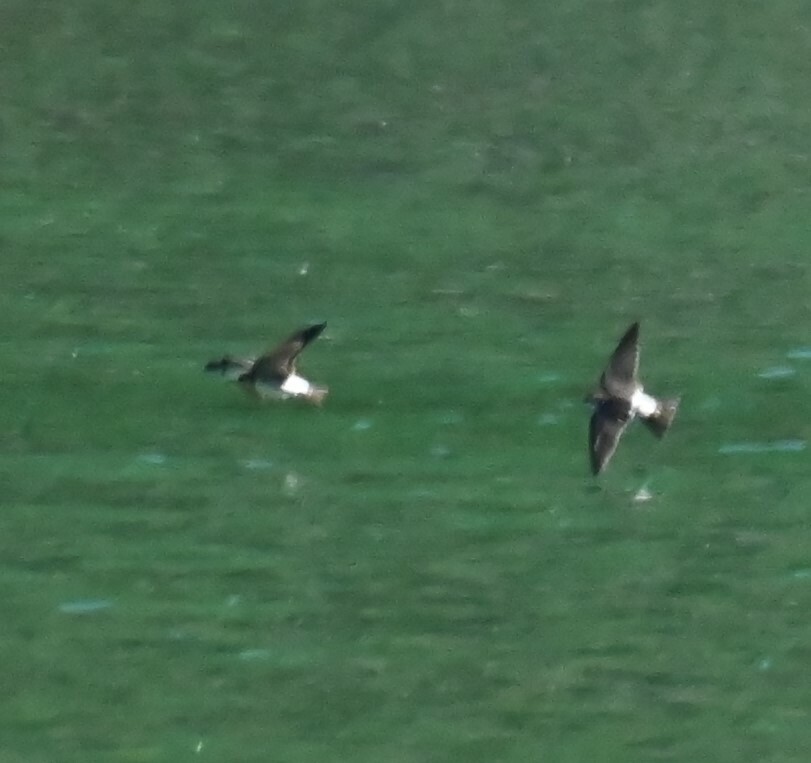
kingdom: Animalia
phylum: Chordata
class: Aves
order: Passeriformes
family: Hirundinidae
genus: Delichon
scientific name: Delichon urbicum
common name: Common house martin
